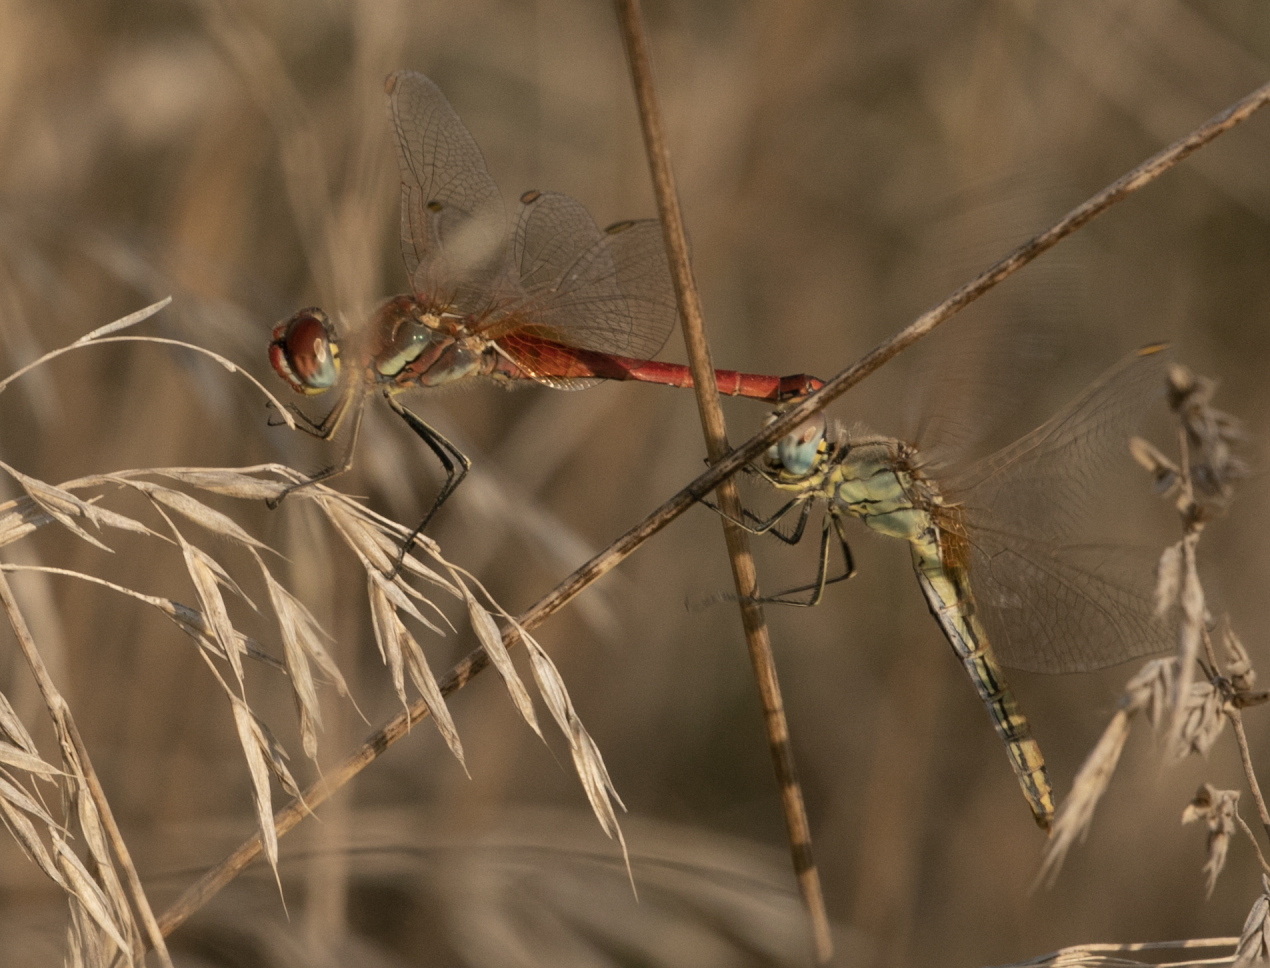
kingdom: Animalia
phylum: Arthropoda
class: Insecta
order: Odonata
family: Libellulidae
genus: Sympetrum
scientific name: Sympetrum fonscolombii
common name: Red-veined darter
